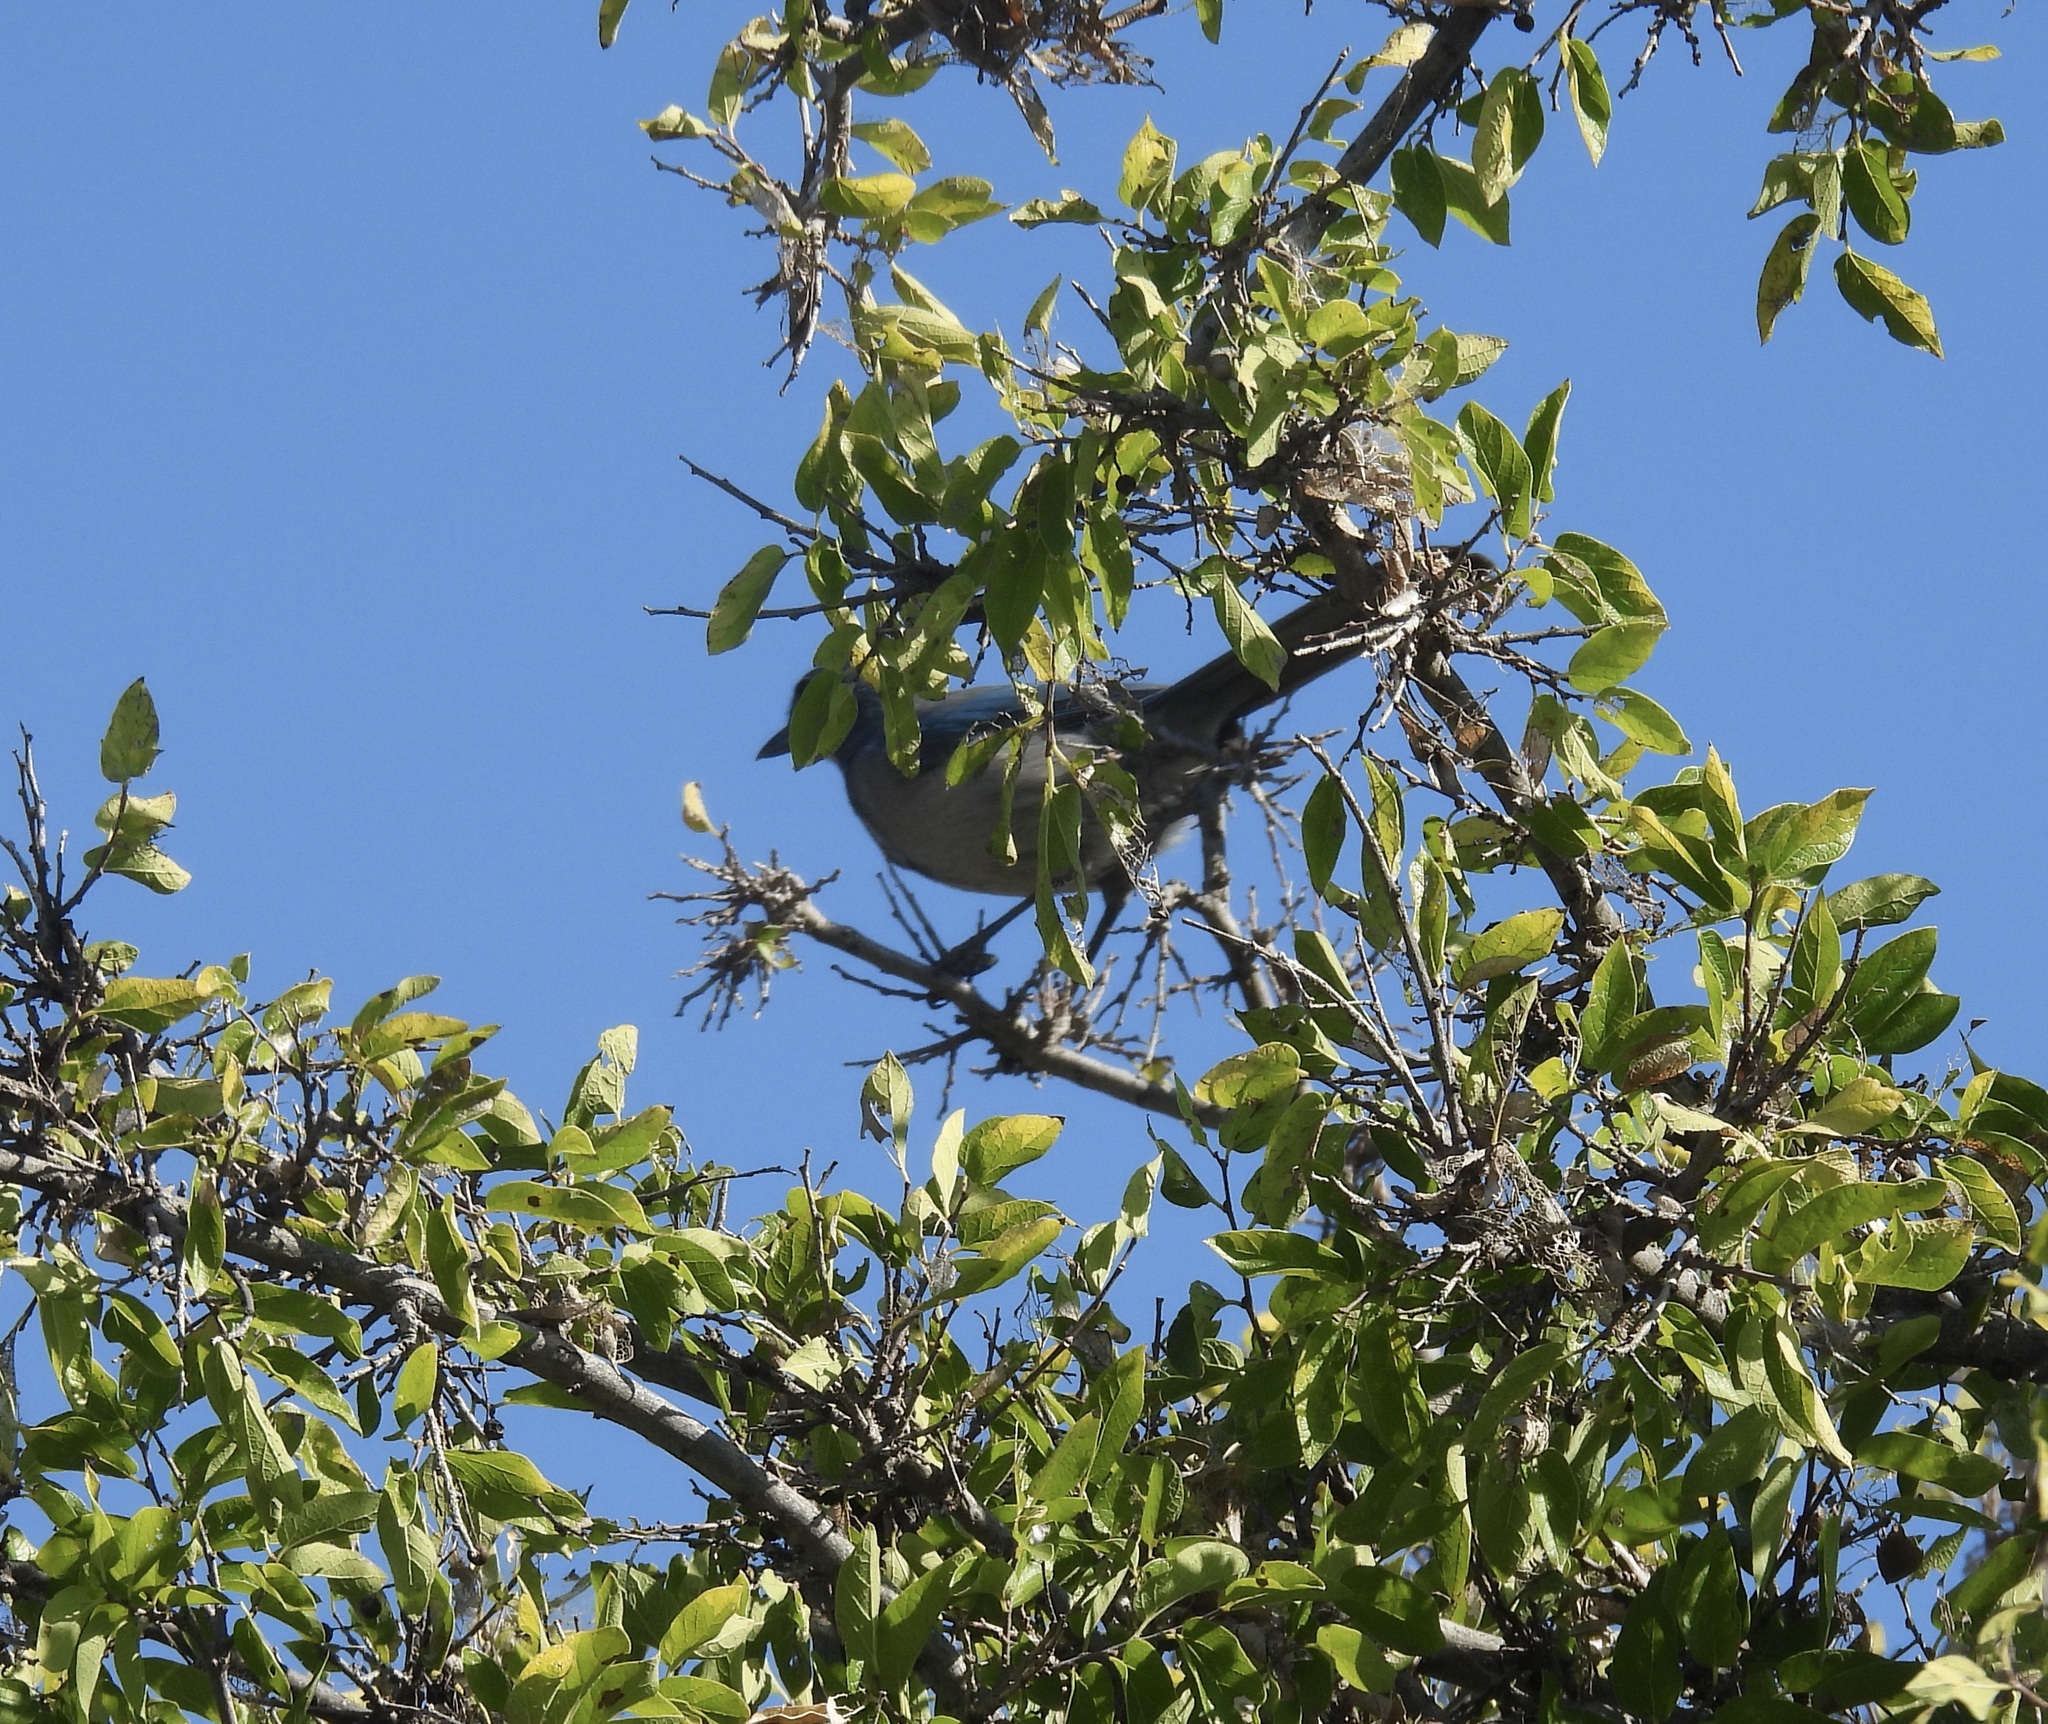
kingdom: Animalia
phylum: Chordata
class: Aves
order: Passeriformes
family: Corvidae
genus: Aphelocoma
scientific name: Aphelocoma woodhouseii
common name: Woodhouse's scrub-jay
